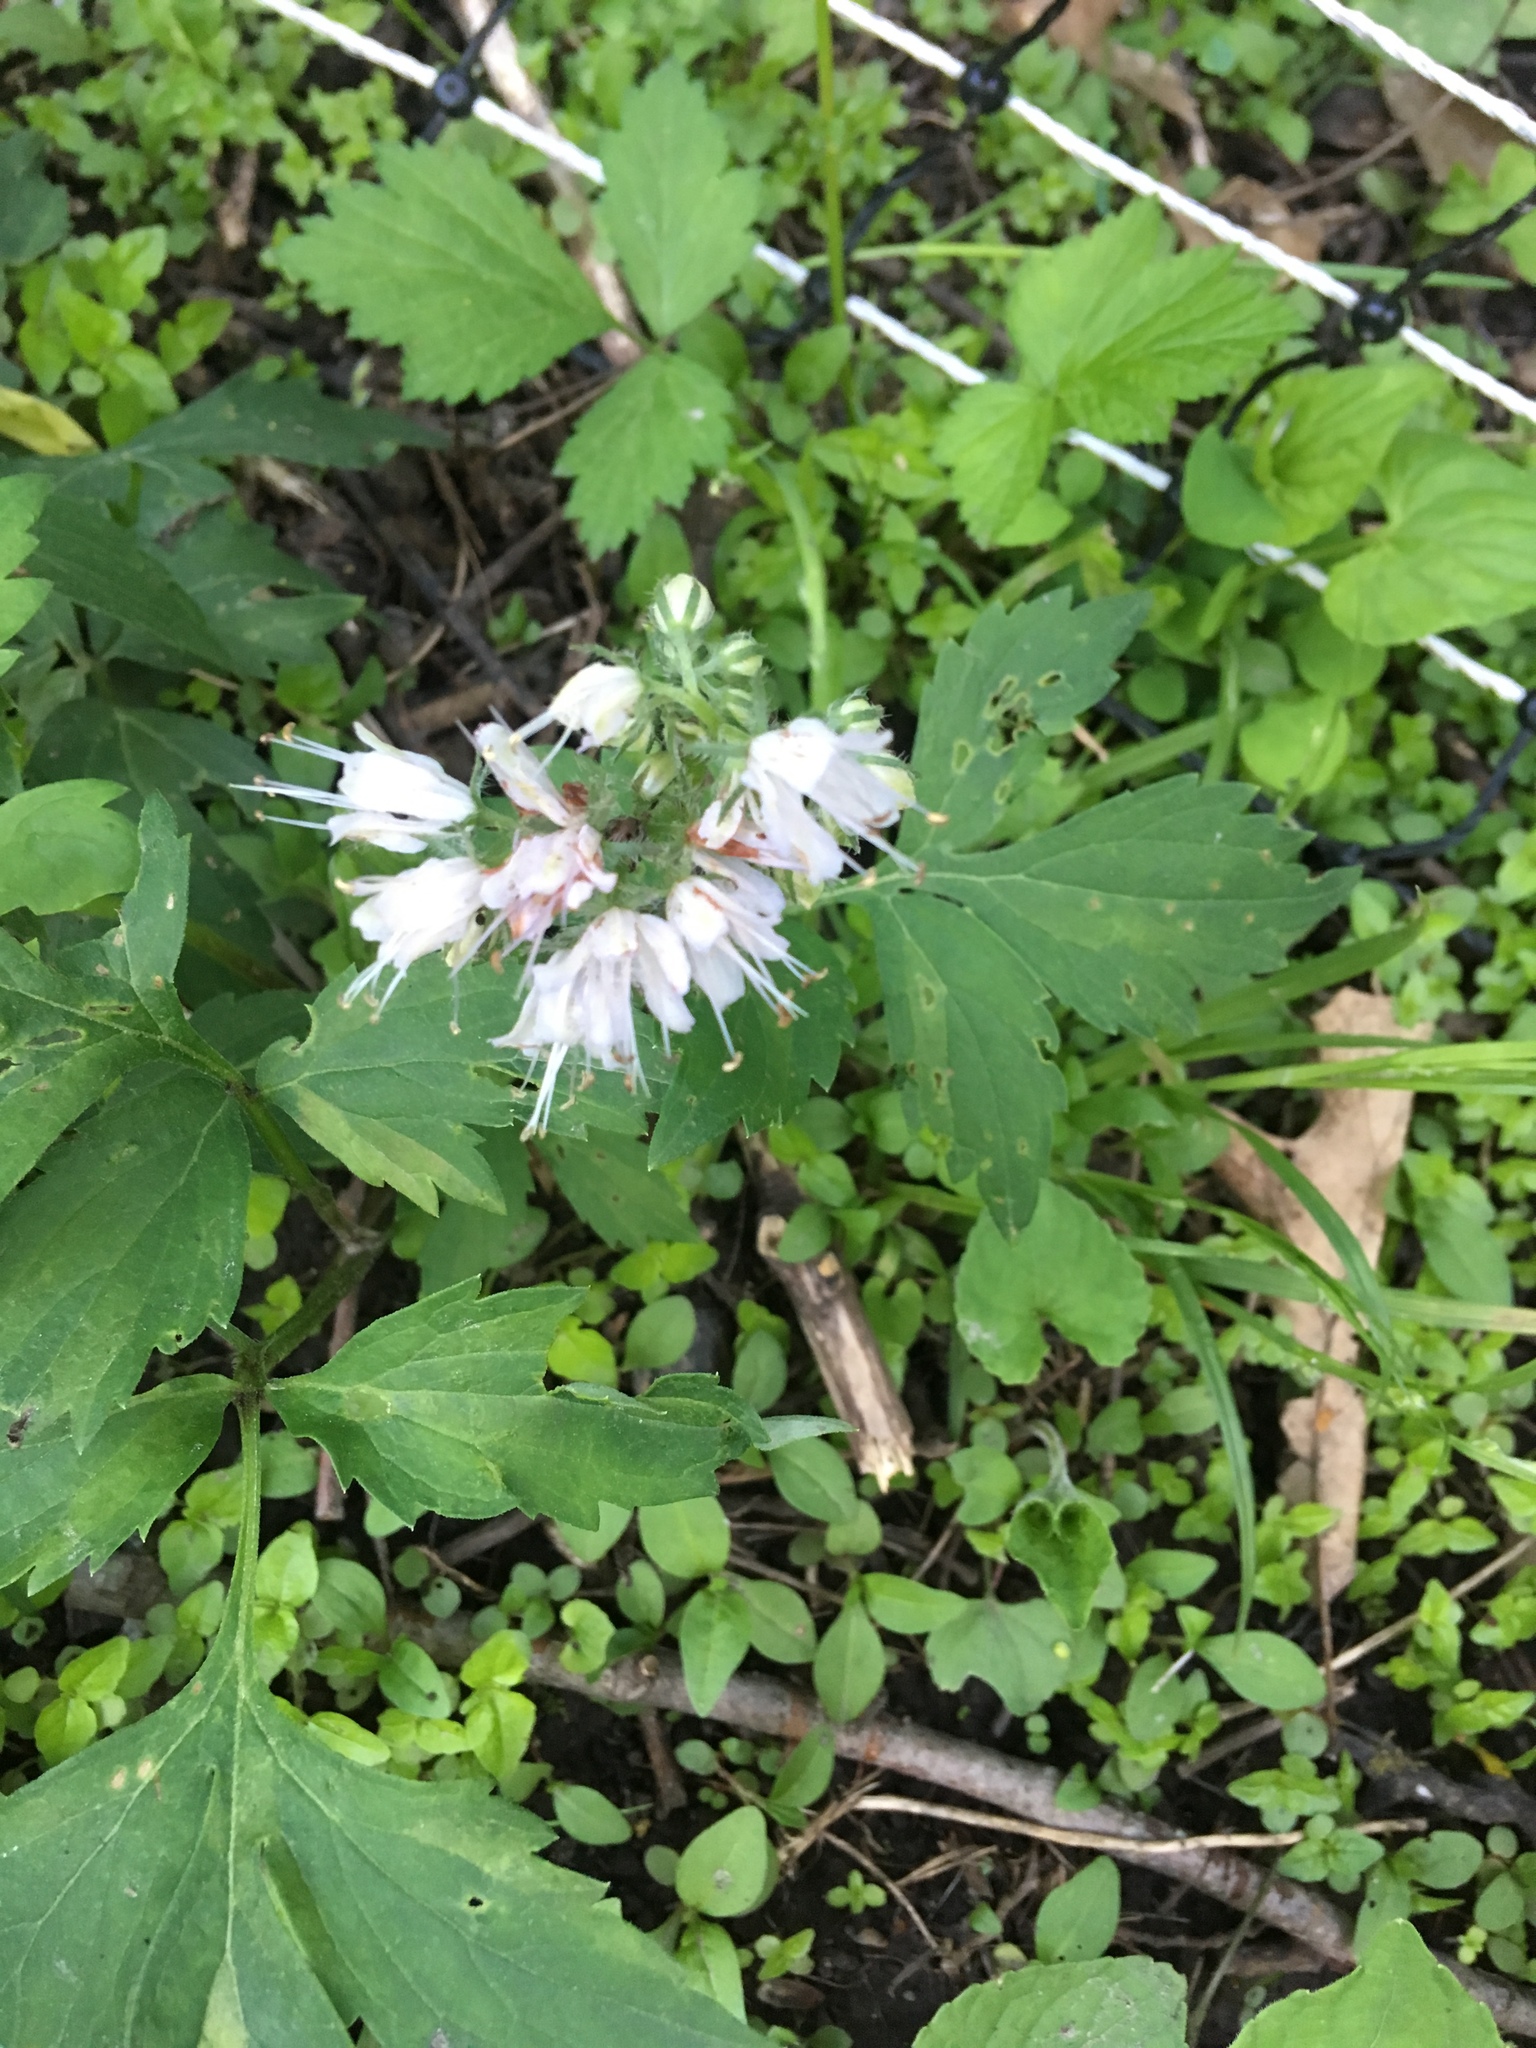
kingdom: Plantae
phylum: Tracheophyta
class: Magnoliopsida
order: Boraginales
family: Hydrophyllaceae
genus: Hydrophyllum
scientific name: Hydrophyllum virginianum
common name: Virginia waterleaf
